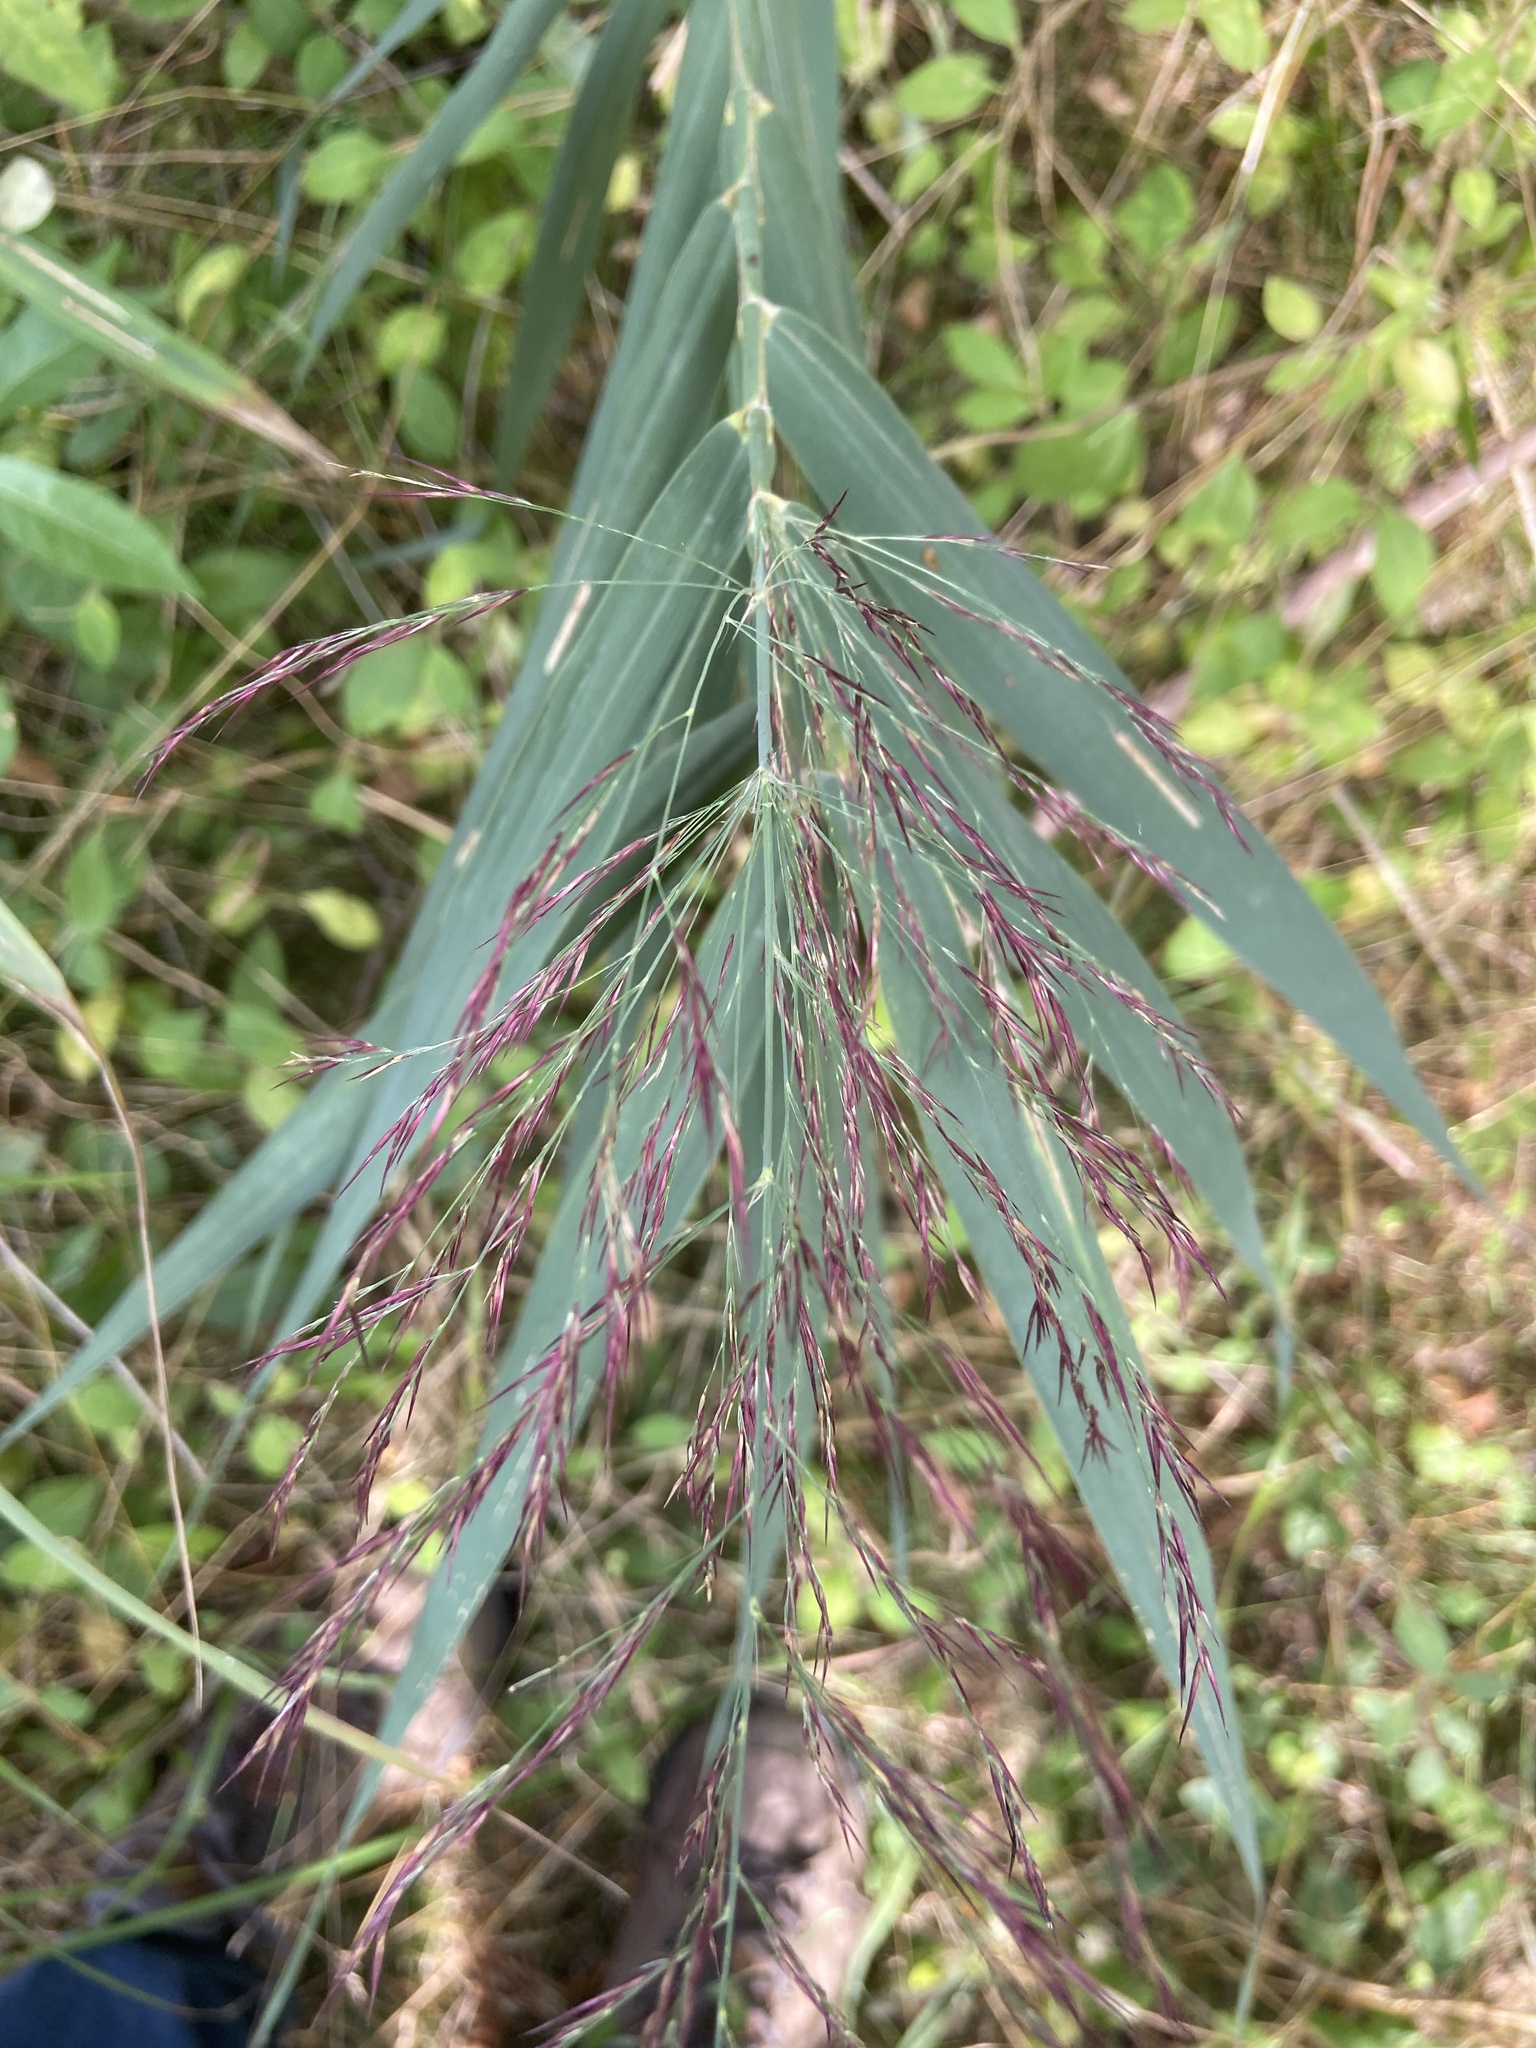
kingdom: Plantae
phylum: Tracheophyta
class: Liliopsida
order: Poales
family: Poaceae
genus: Phragmites
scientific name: Phragmites australis
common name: Common reed
